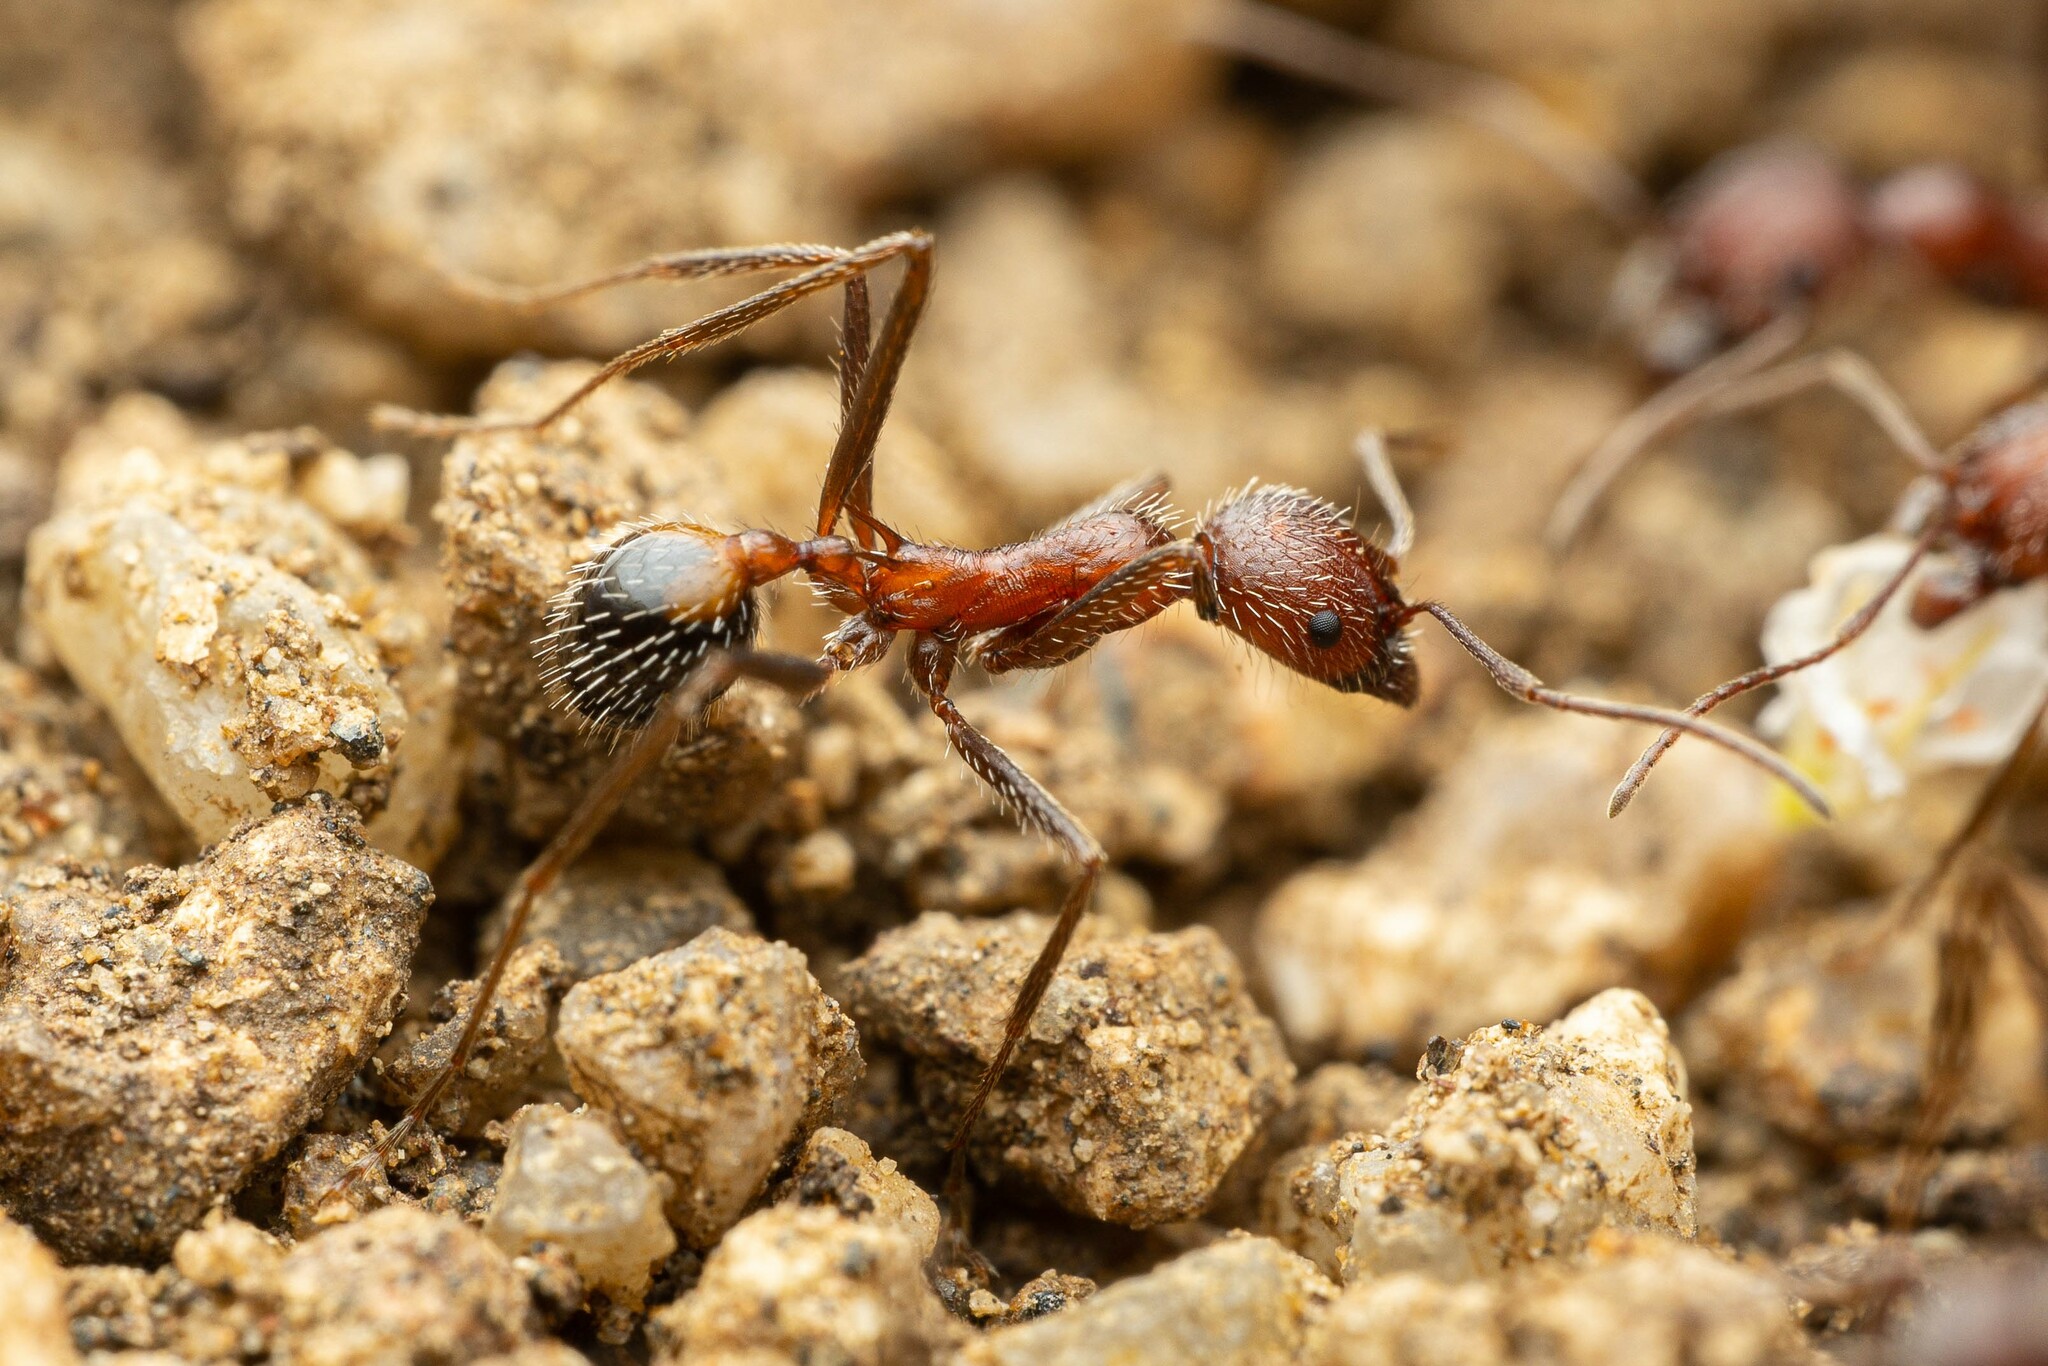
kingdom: Animalia
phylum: Arthropoda
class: Insecta
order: Hymenoptera
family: Formicidae
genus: Novomessor
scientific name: Novomessor albisetosa
